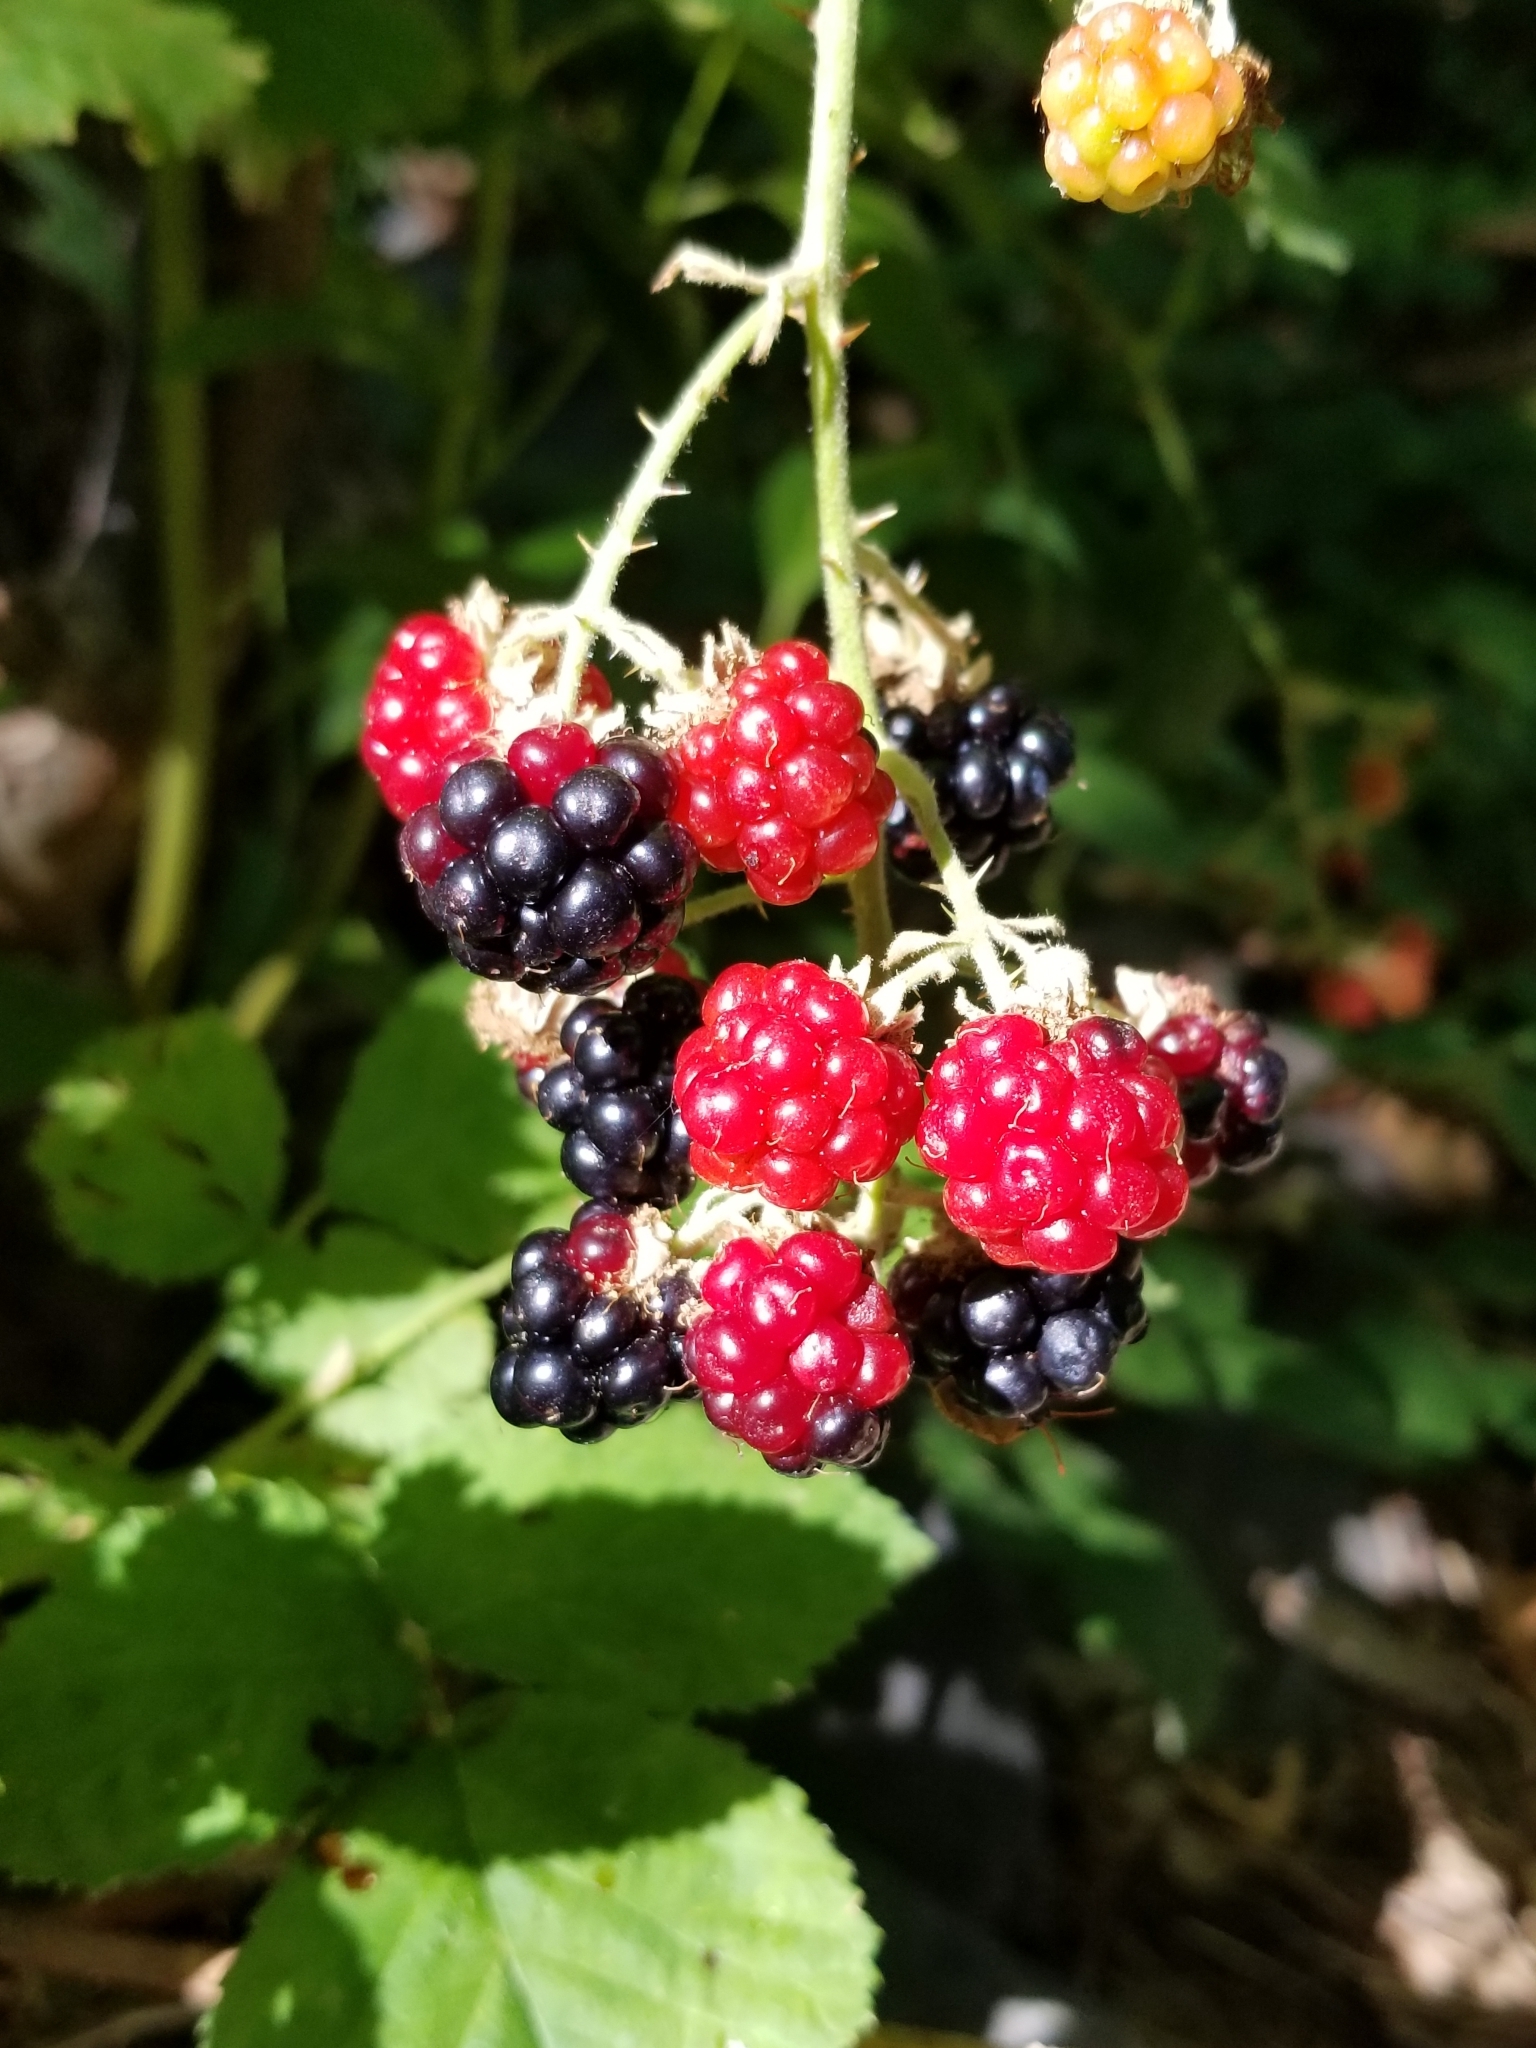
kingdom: Plantae
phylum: Tracheophyta
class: Magnoliopsida
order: Rosales
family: Rosaceae
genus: Rubus
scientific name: Rubus armeniacus
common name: Himalayan blackberry
